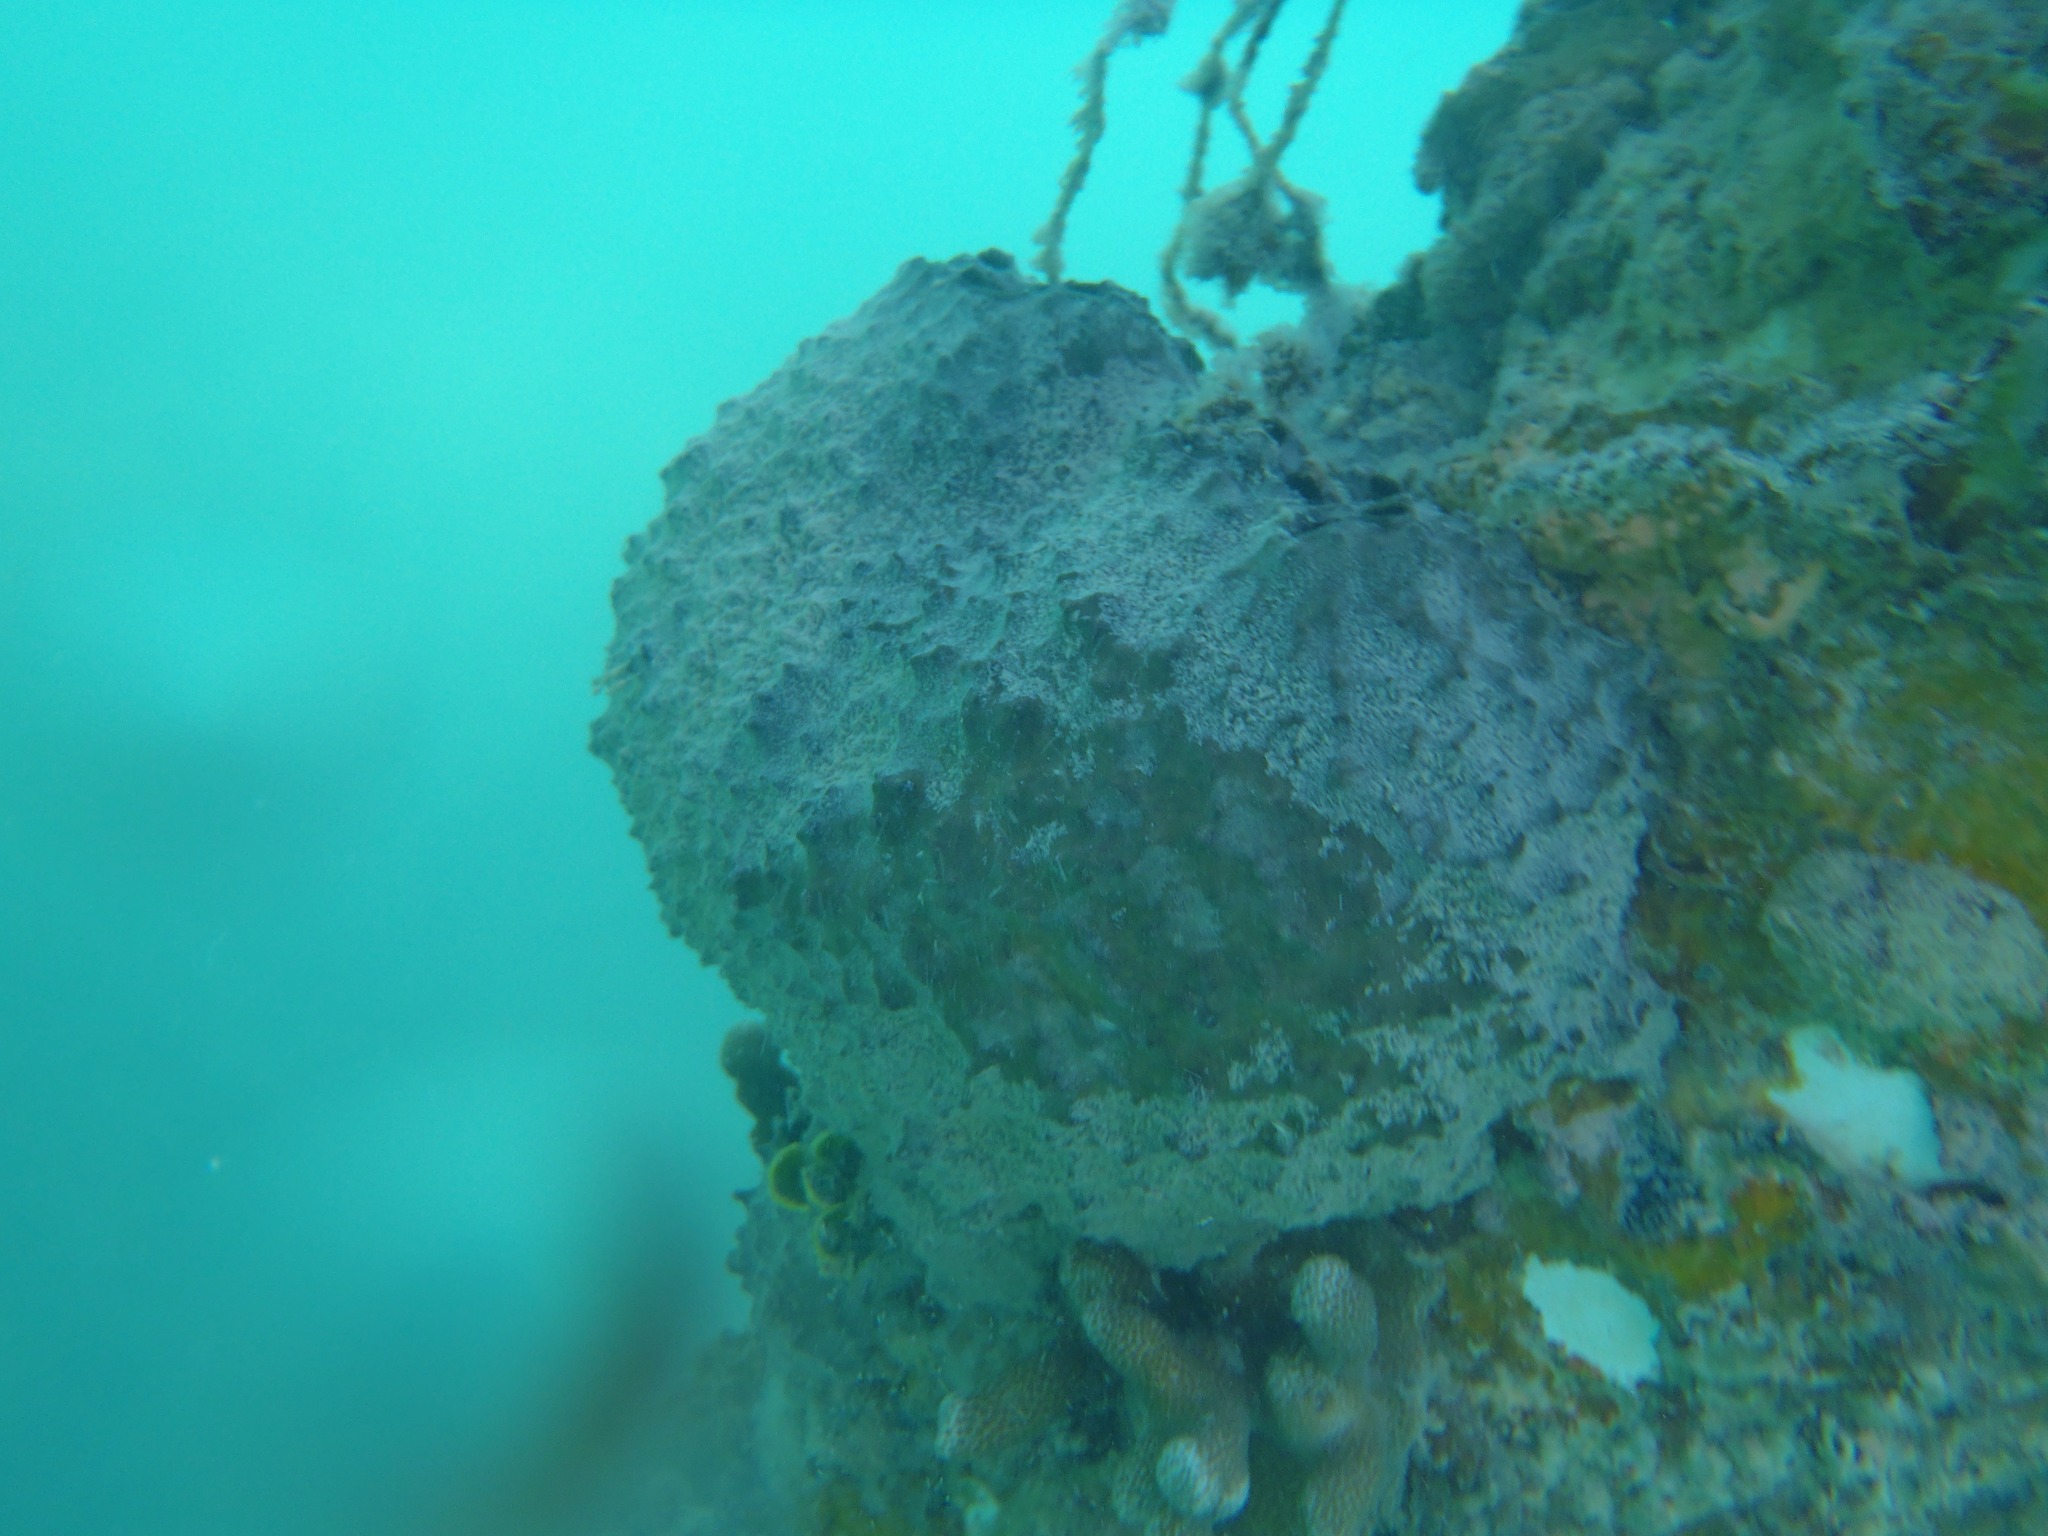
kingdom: Animalia
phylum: Porifera
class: Demospongiae
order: Dictyoceratida
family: Irciniidae
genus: Ircinia
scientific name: Ircinia strobilina
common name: Cake sponge
